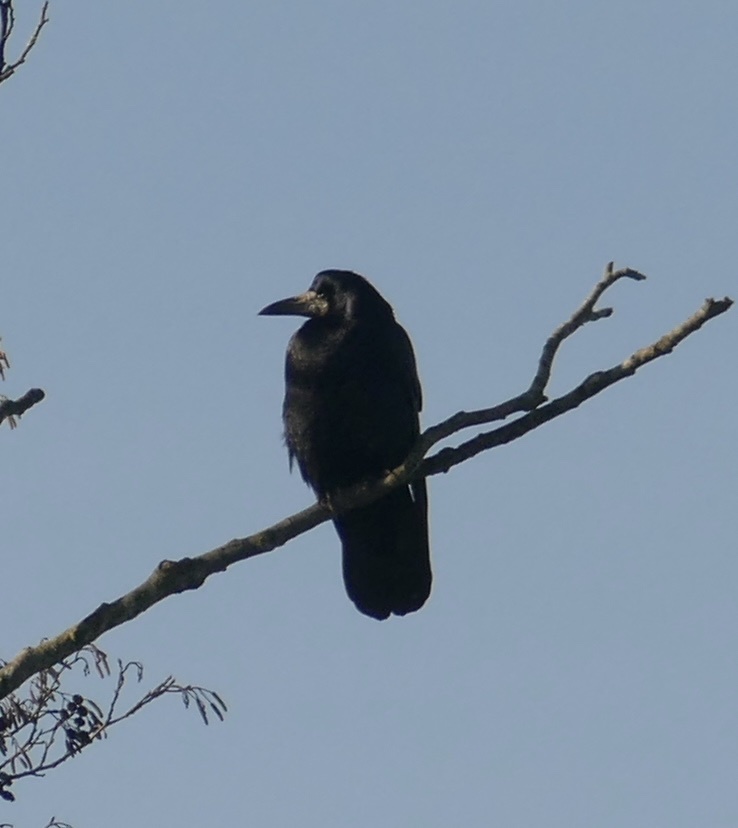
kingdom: Animalia
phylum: Chordata
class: Aves
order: Passeriformes
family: Corvidae
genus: Corvus
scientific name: Corvus frugilegus
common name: Rook
